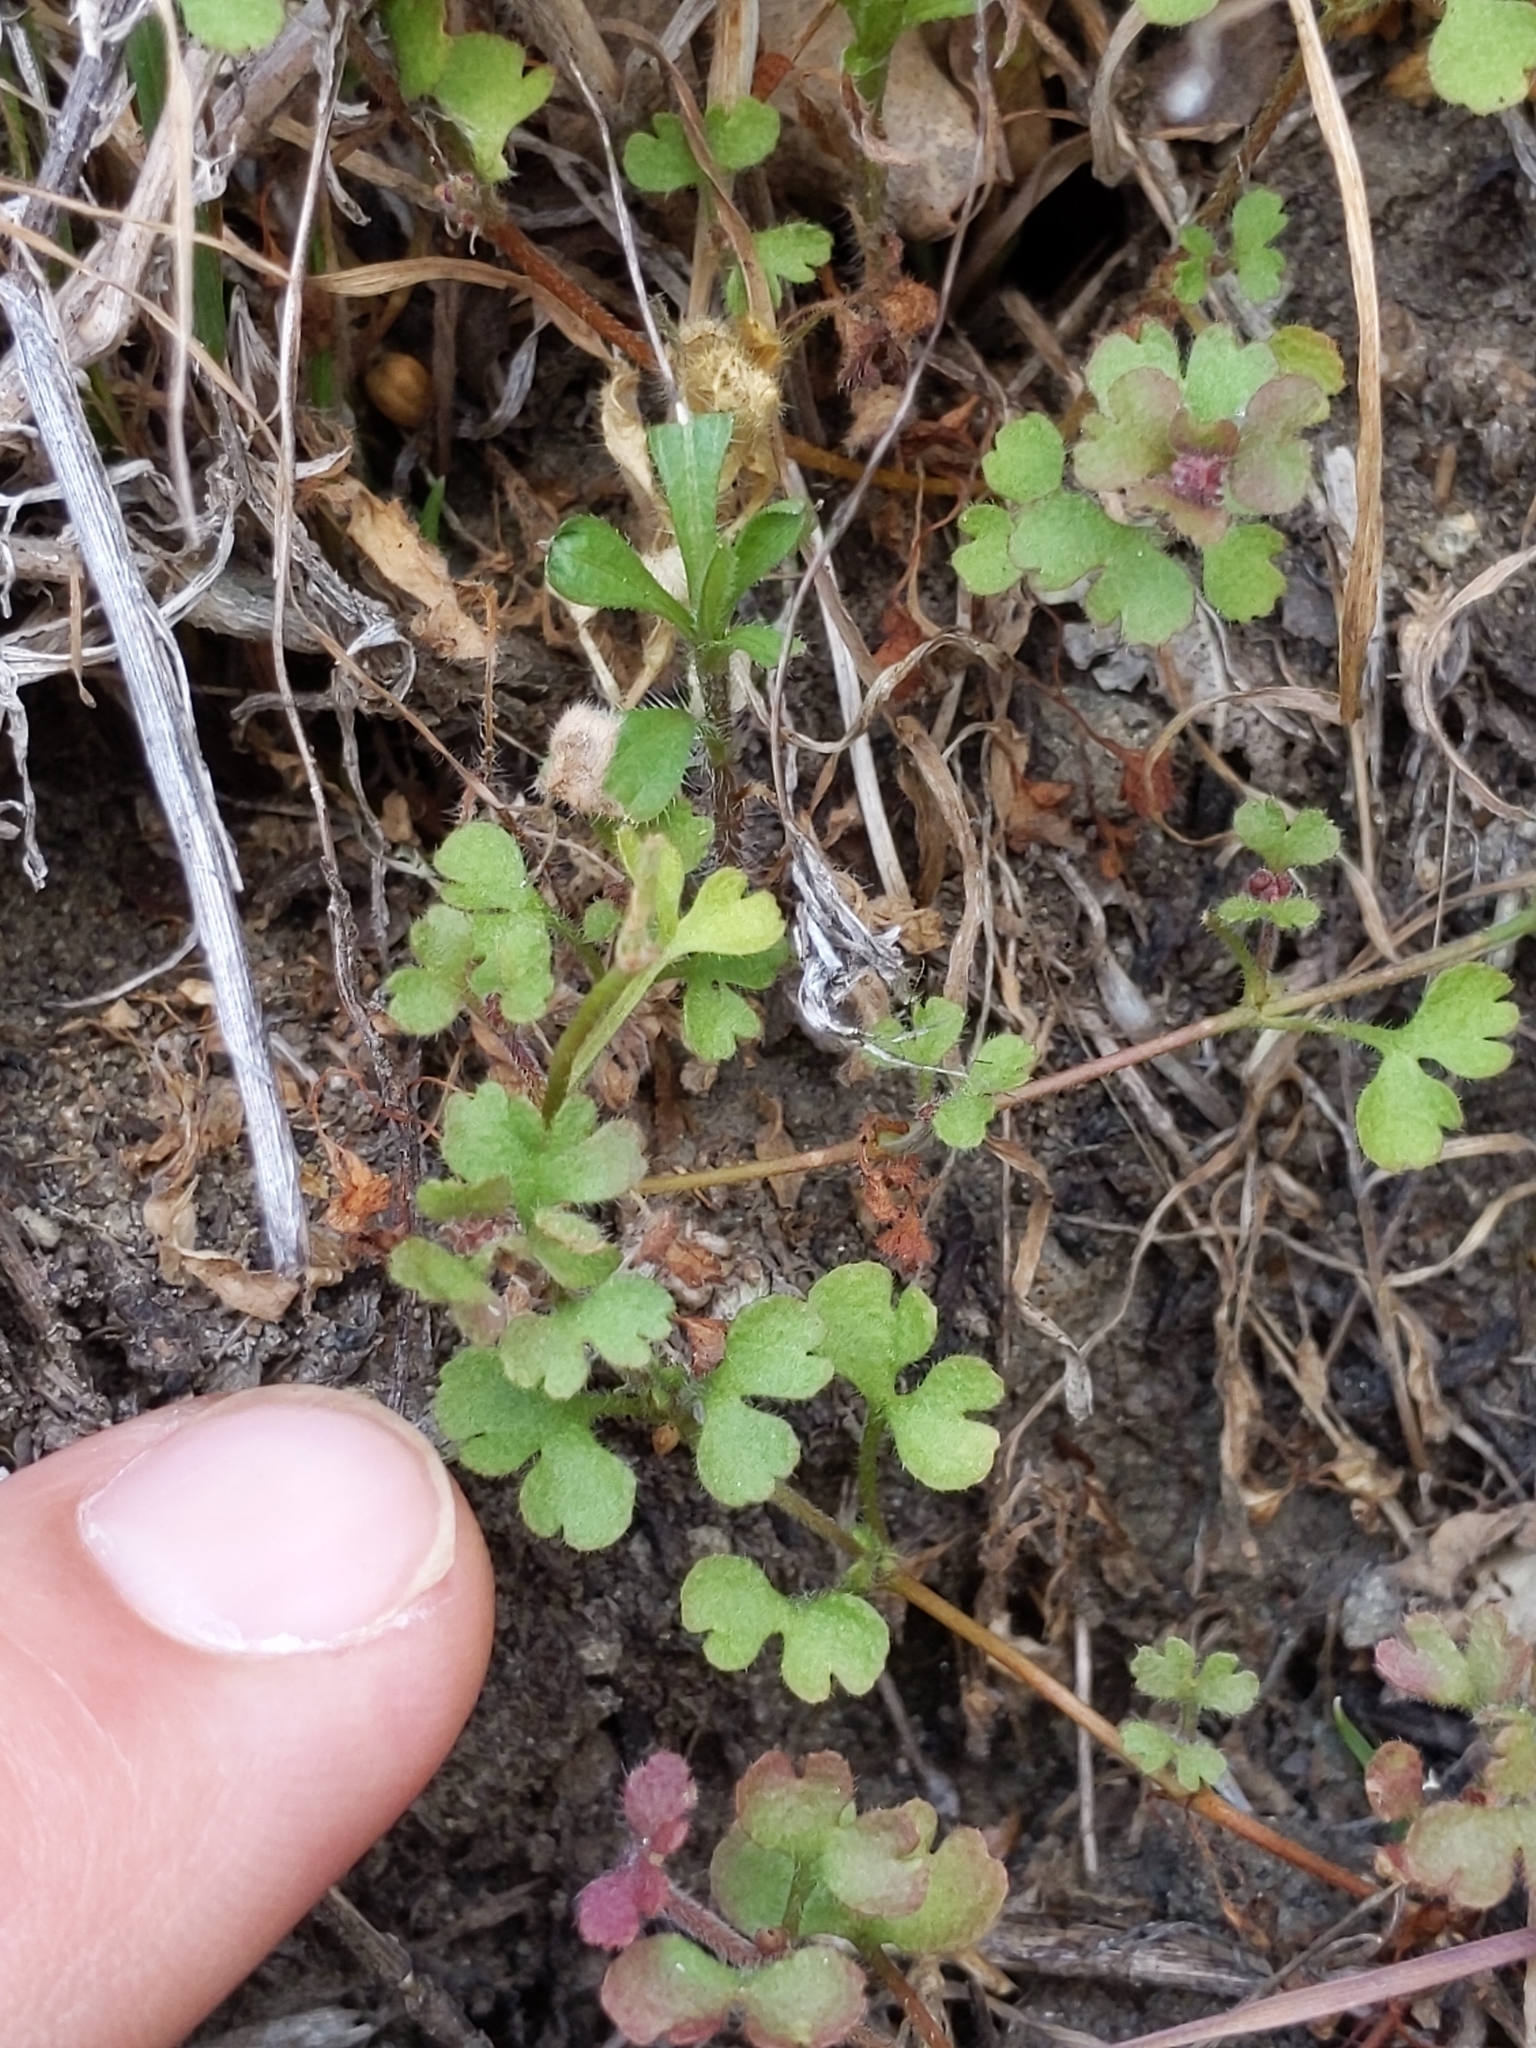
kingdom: Plantae
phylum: Tracheophyta
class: Magnoliopsida
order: Caryophyllales
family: Polygonaceae
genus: Pterostegia
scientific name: Pterostegia drymarioides
